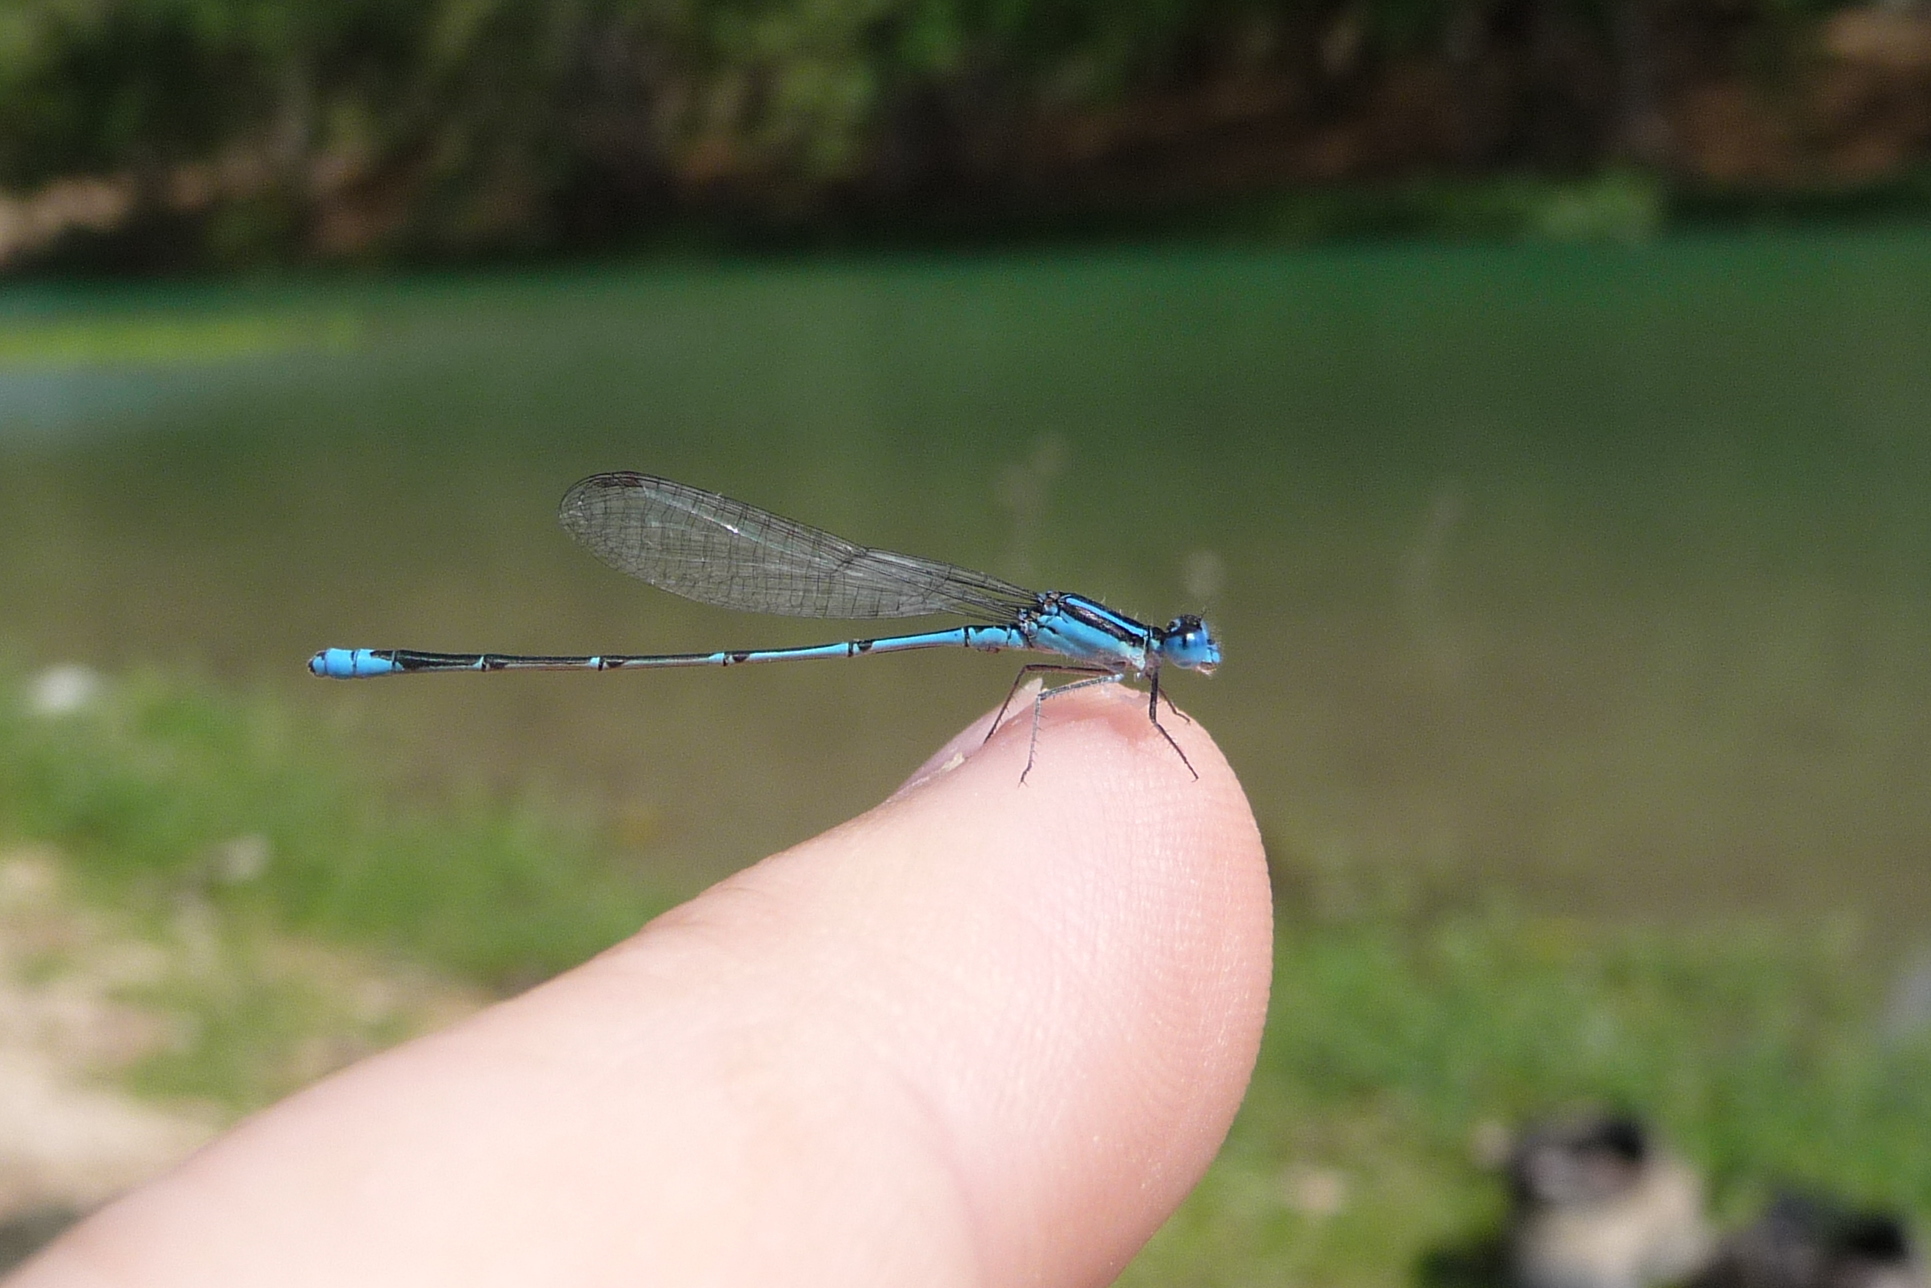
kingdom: Animalia
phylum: Arthropoda
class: Insecta
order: Odonata
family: Coenagrionidae
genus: Azuragrion
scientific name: Azuragrion nigridorsum
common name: Sailing azuret
